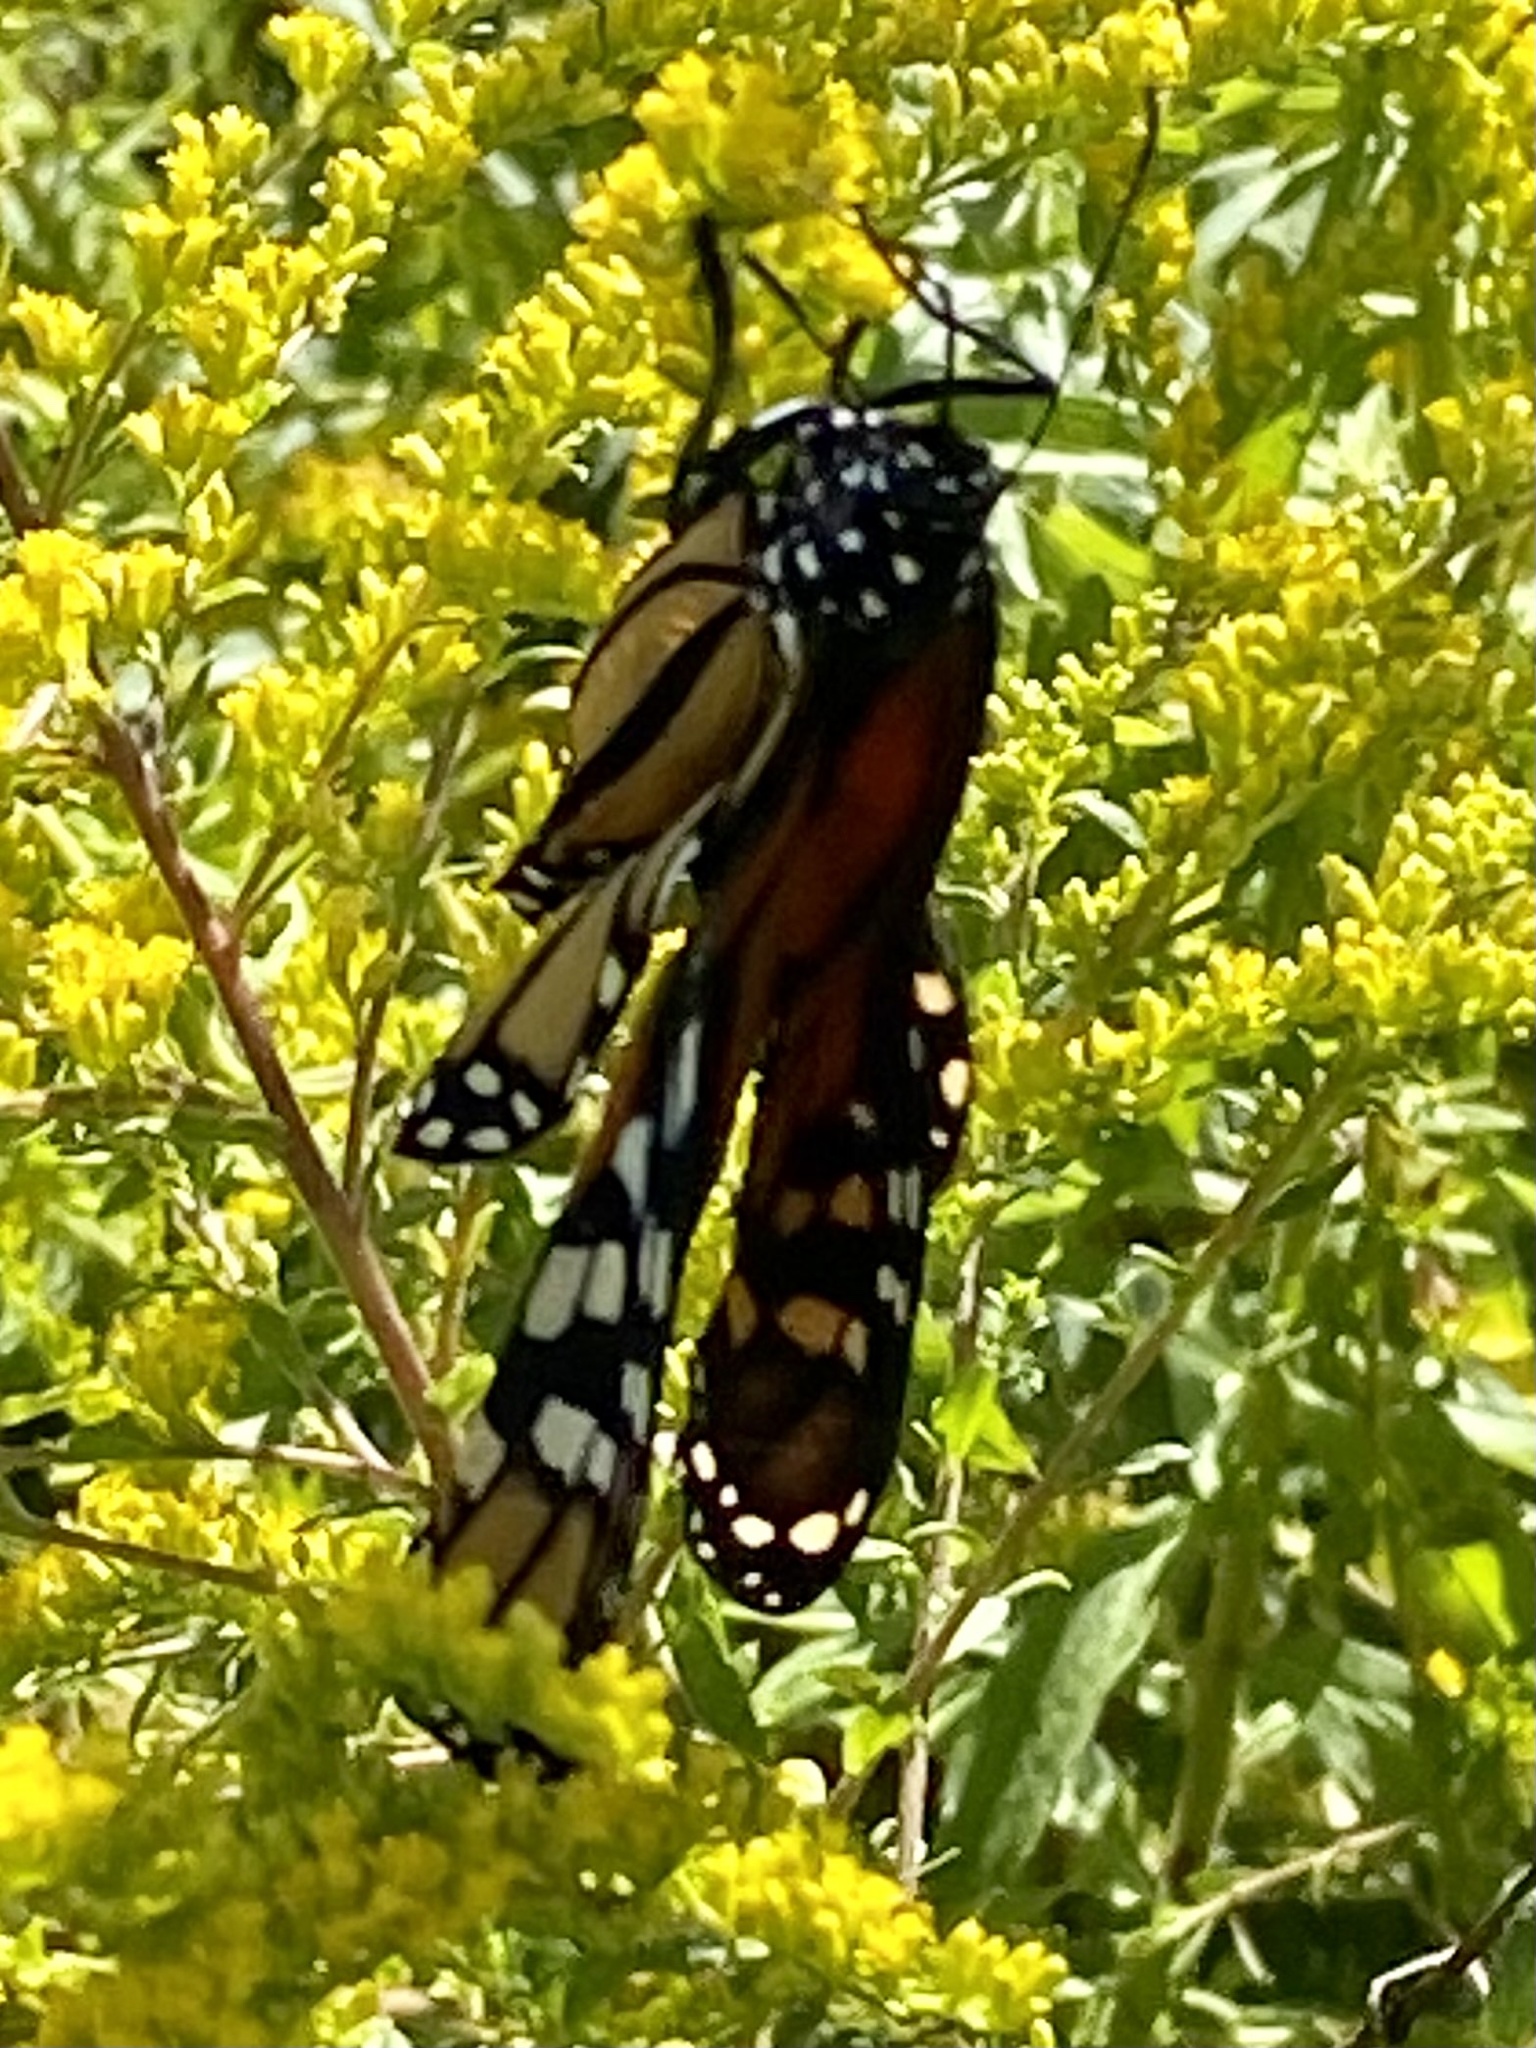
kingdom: Animalia
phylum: Arthropoda
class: Insecta
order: Lepidoptera
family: Nymphalidae
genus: Danaus
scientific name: Danaus plexippus
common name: Monarch
